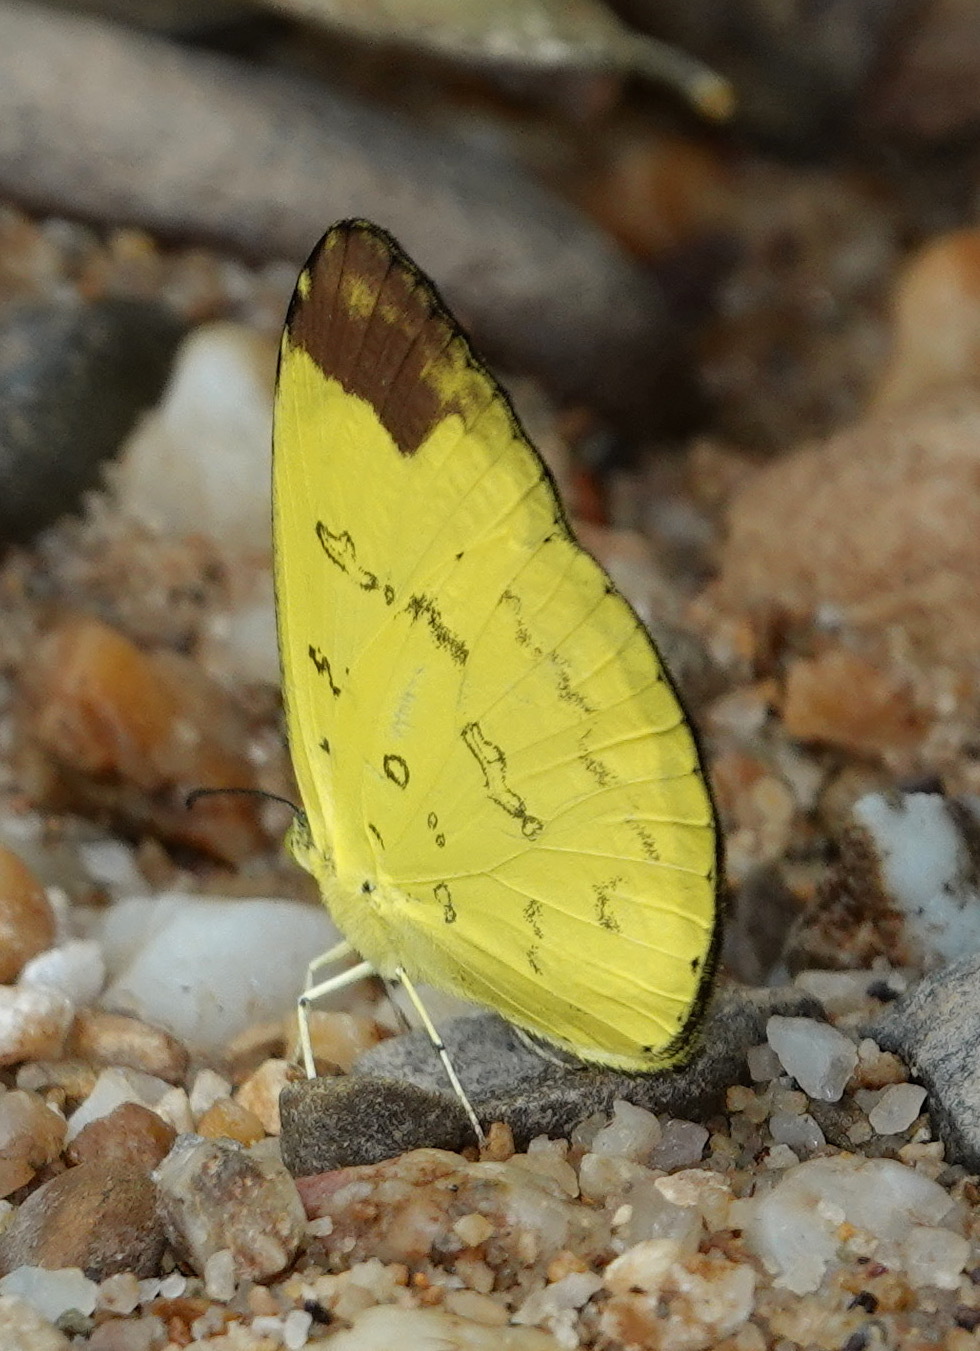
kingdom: Animalia
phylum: Arthropoda
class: Insecta
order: Lepidoptera
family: Pieridae
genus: Eurema
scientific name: Eurema simulatrix
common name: Hill grass yellow
